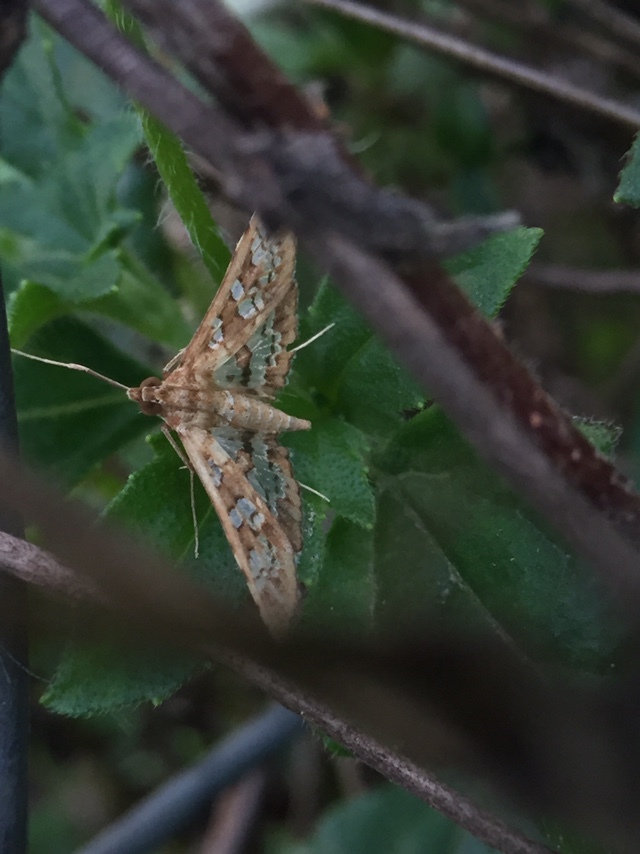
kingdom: Animalia
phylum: Arthropoda
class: Insecta
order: Lepidoptera
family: Crambidae
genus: Sameodes
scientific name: Sameodes cancellalis
